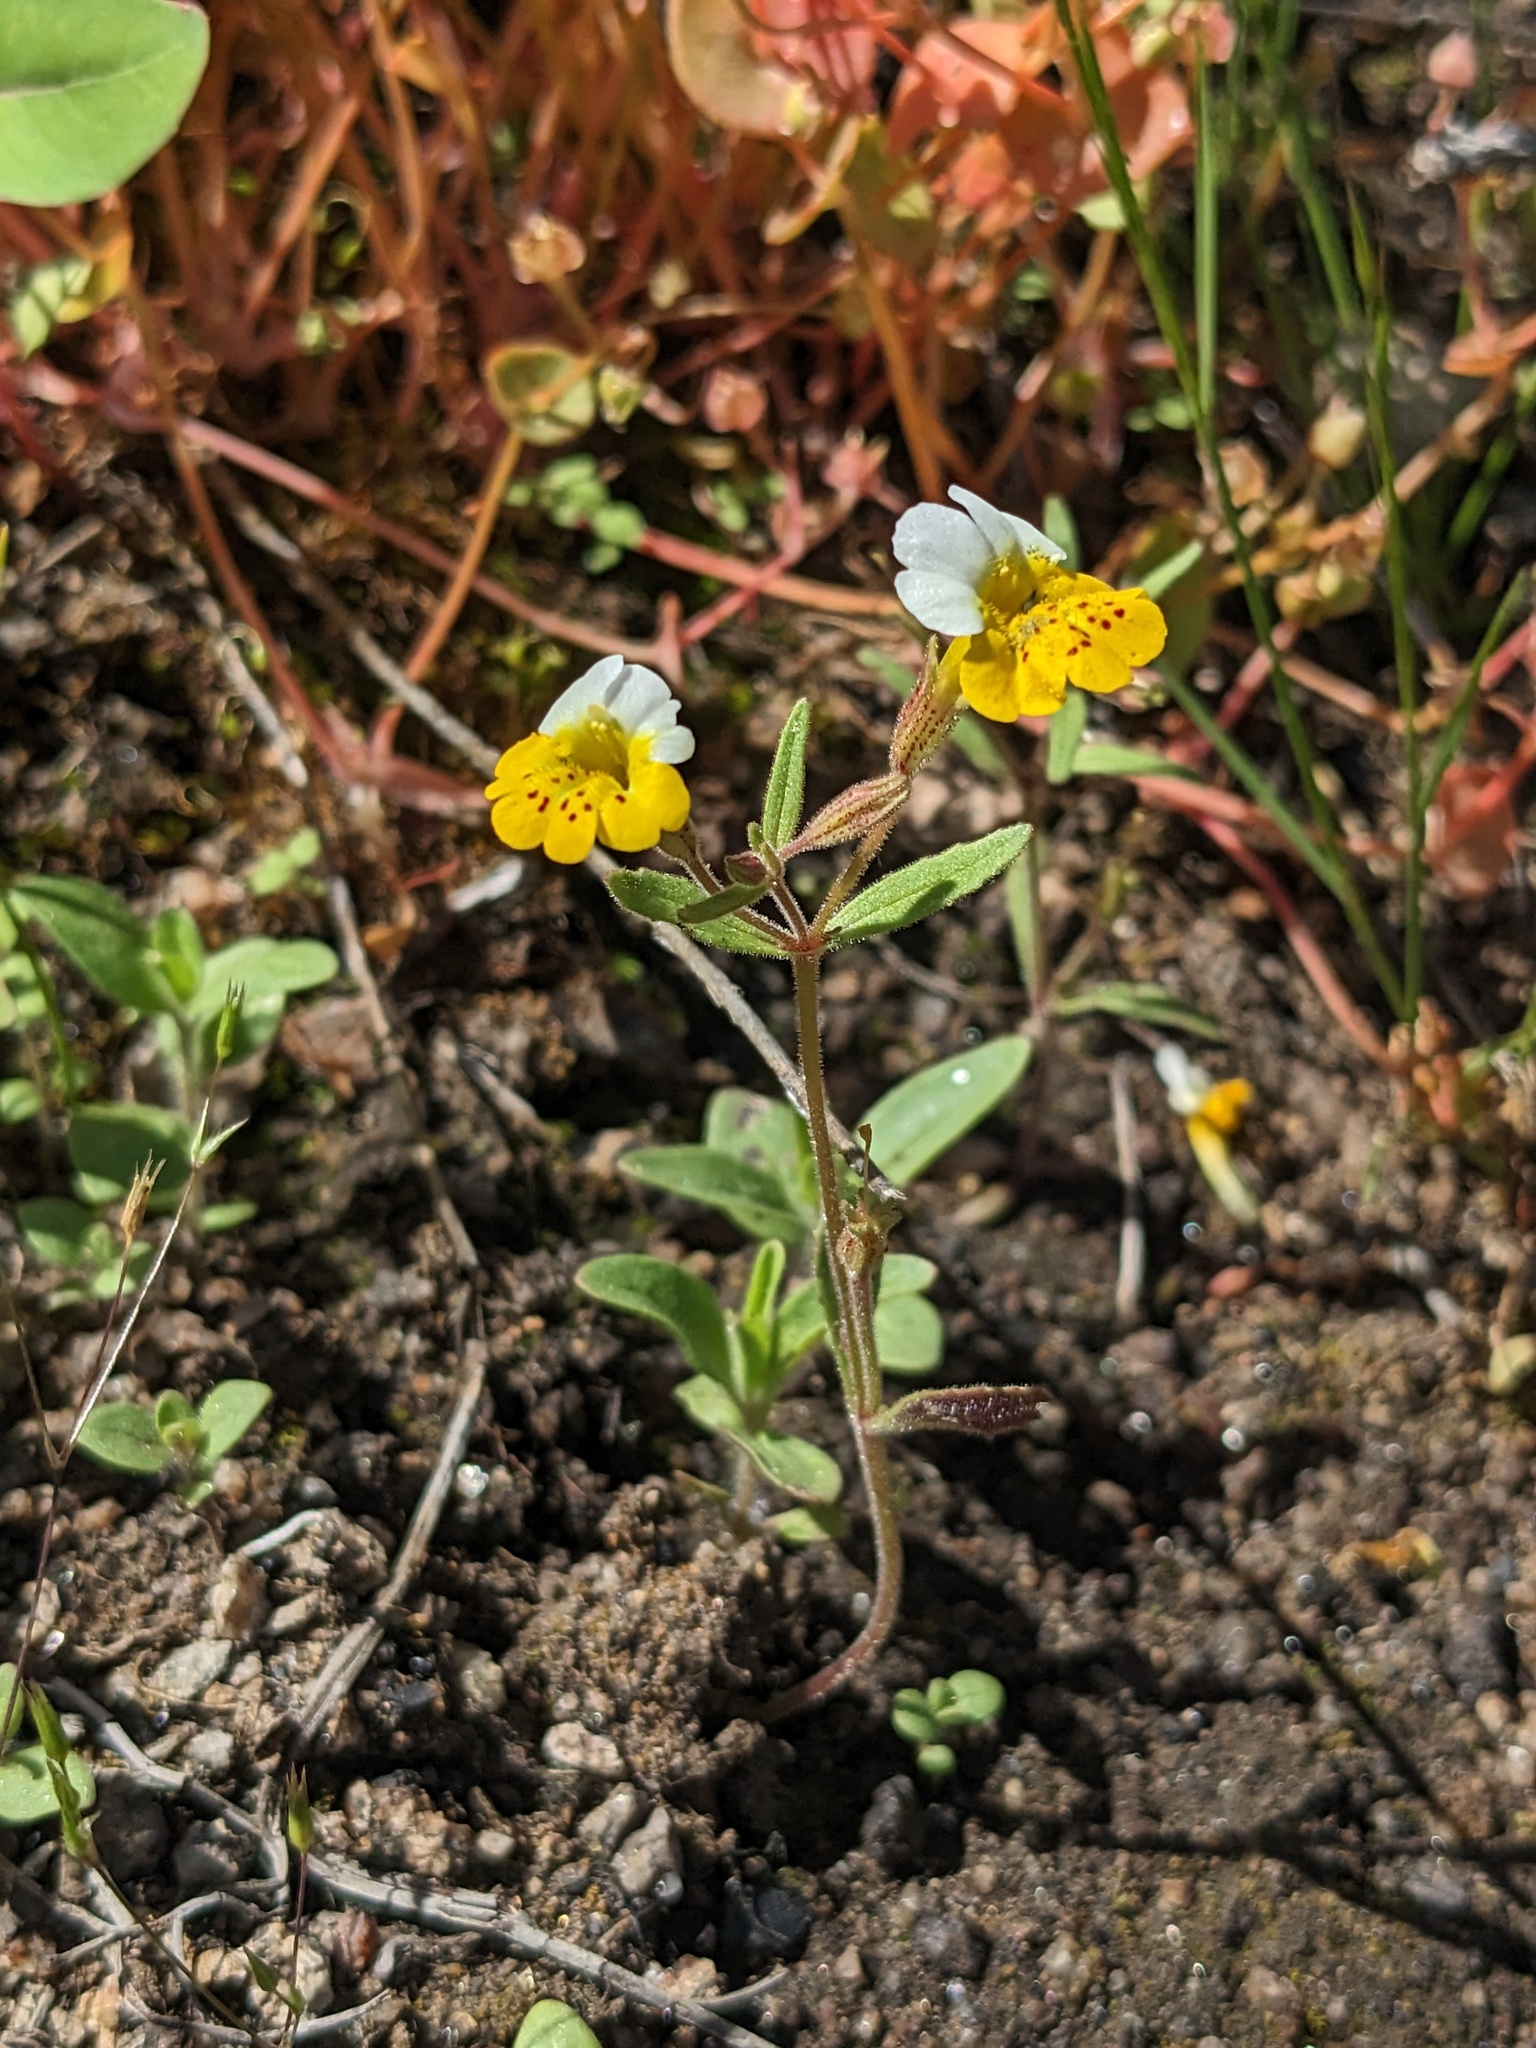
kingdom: Plantae
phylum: Tracheophyta
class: Magnoliopsida
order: Lamiales
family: Phrymaceae
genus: Erythranthe
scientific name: Erythranthe bicolor
